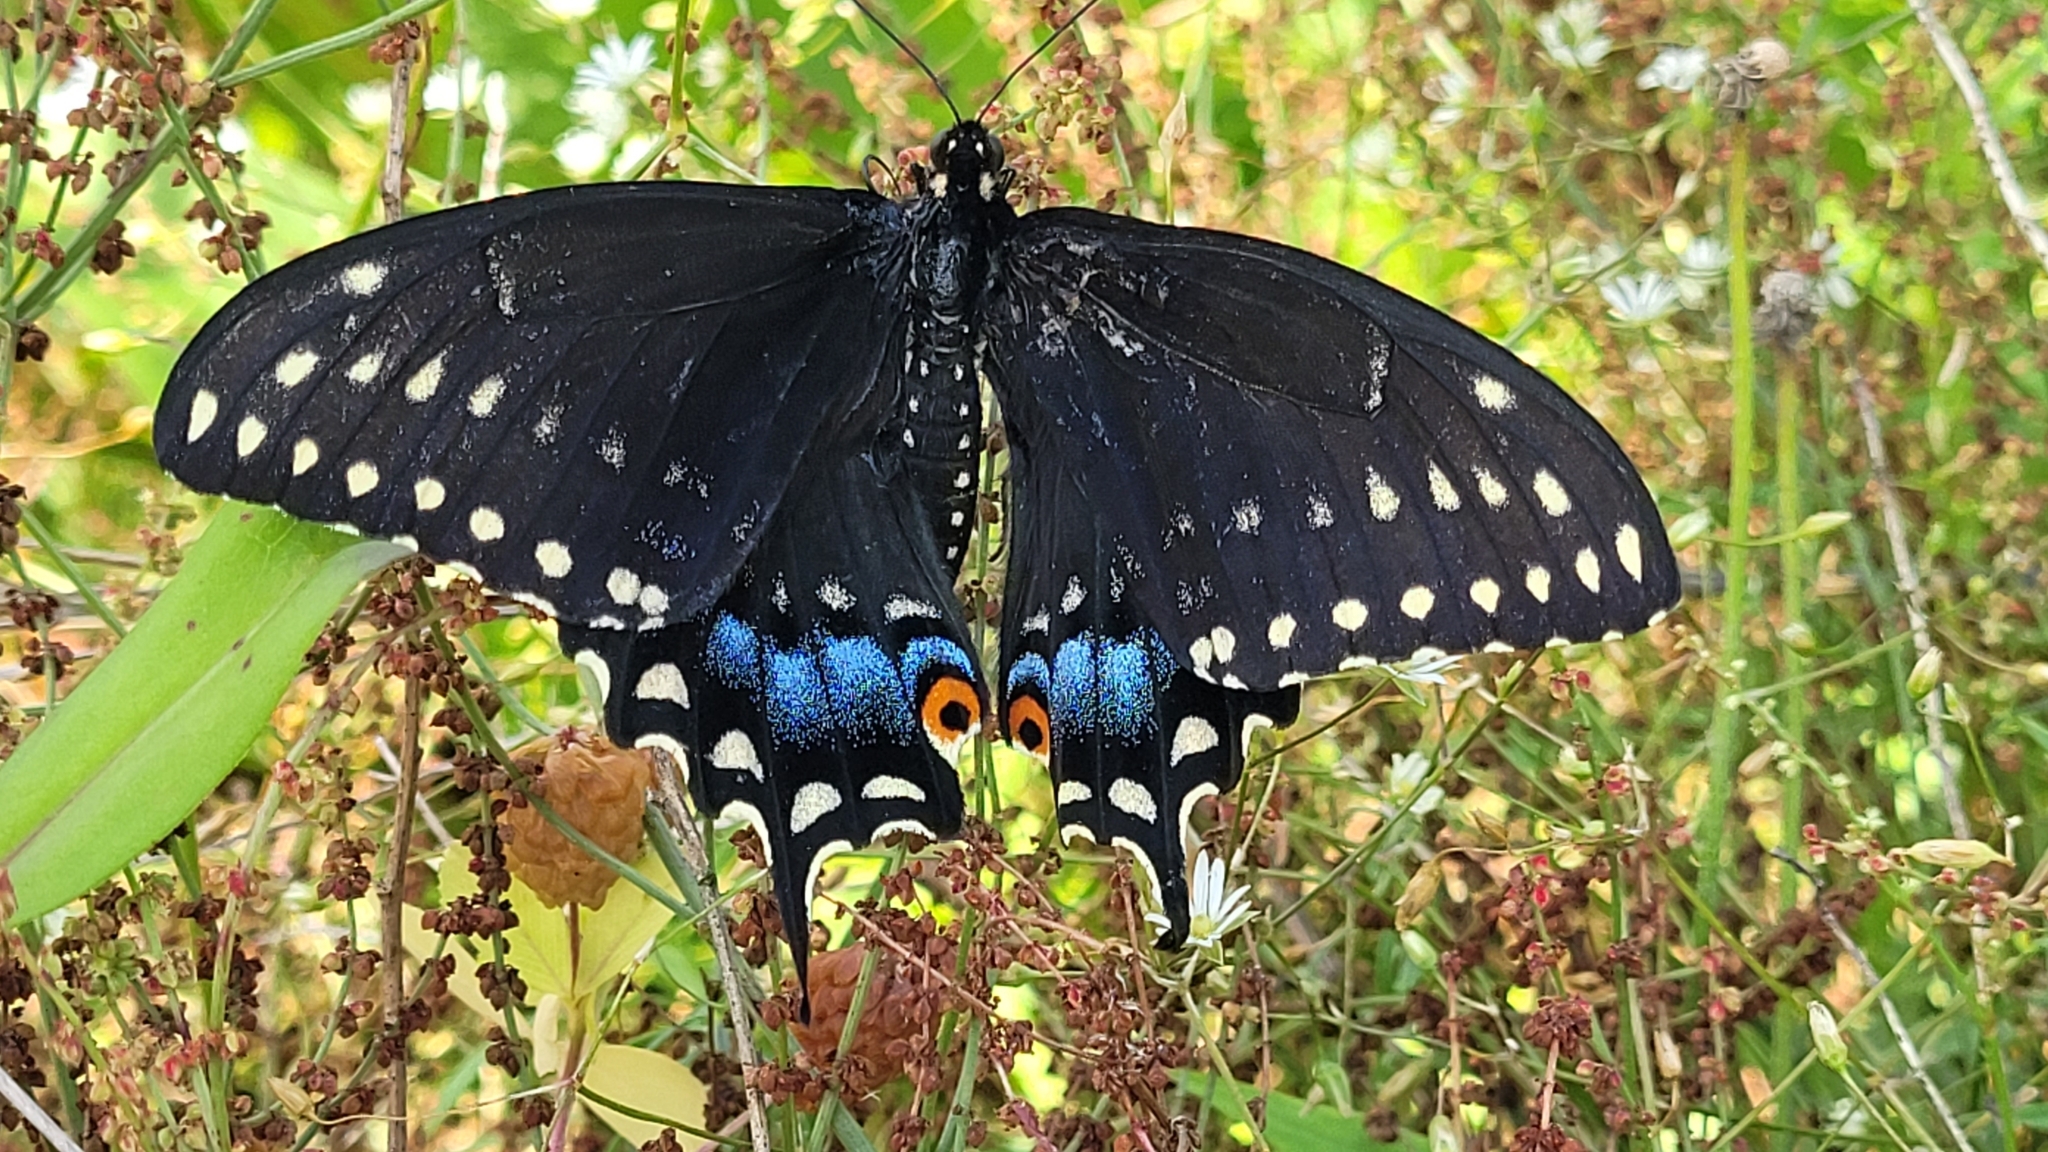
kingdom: Animalia
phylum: Arthropoda
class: Insecta
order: Lepidoptera
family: Papilionidae
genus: Papilio
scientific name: Papilio polyxenes
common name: Black swallowtail
